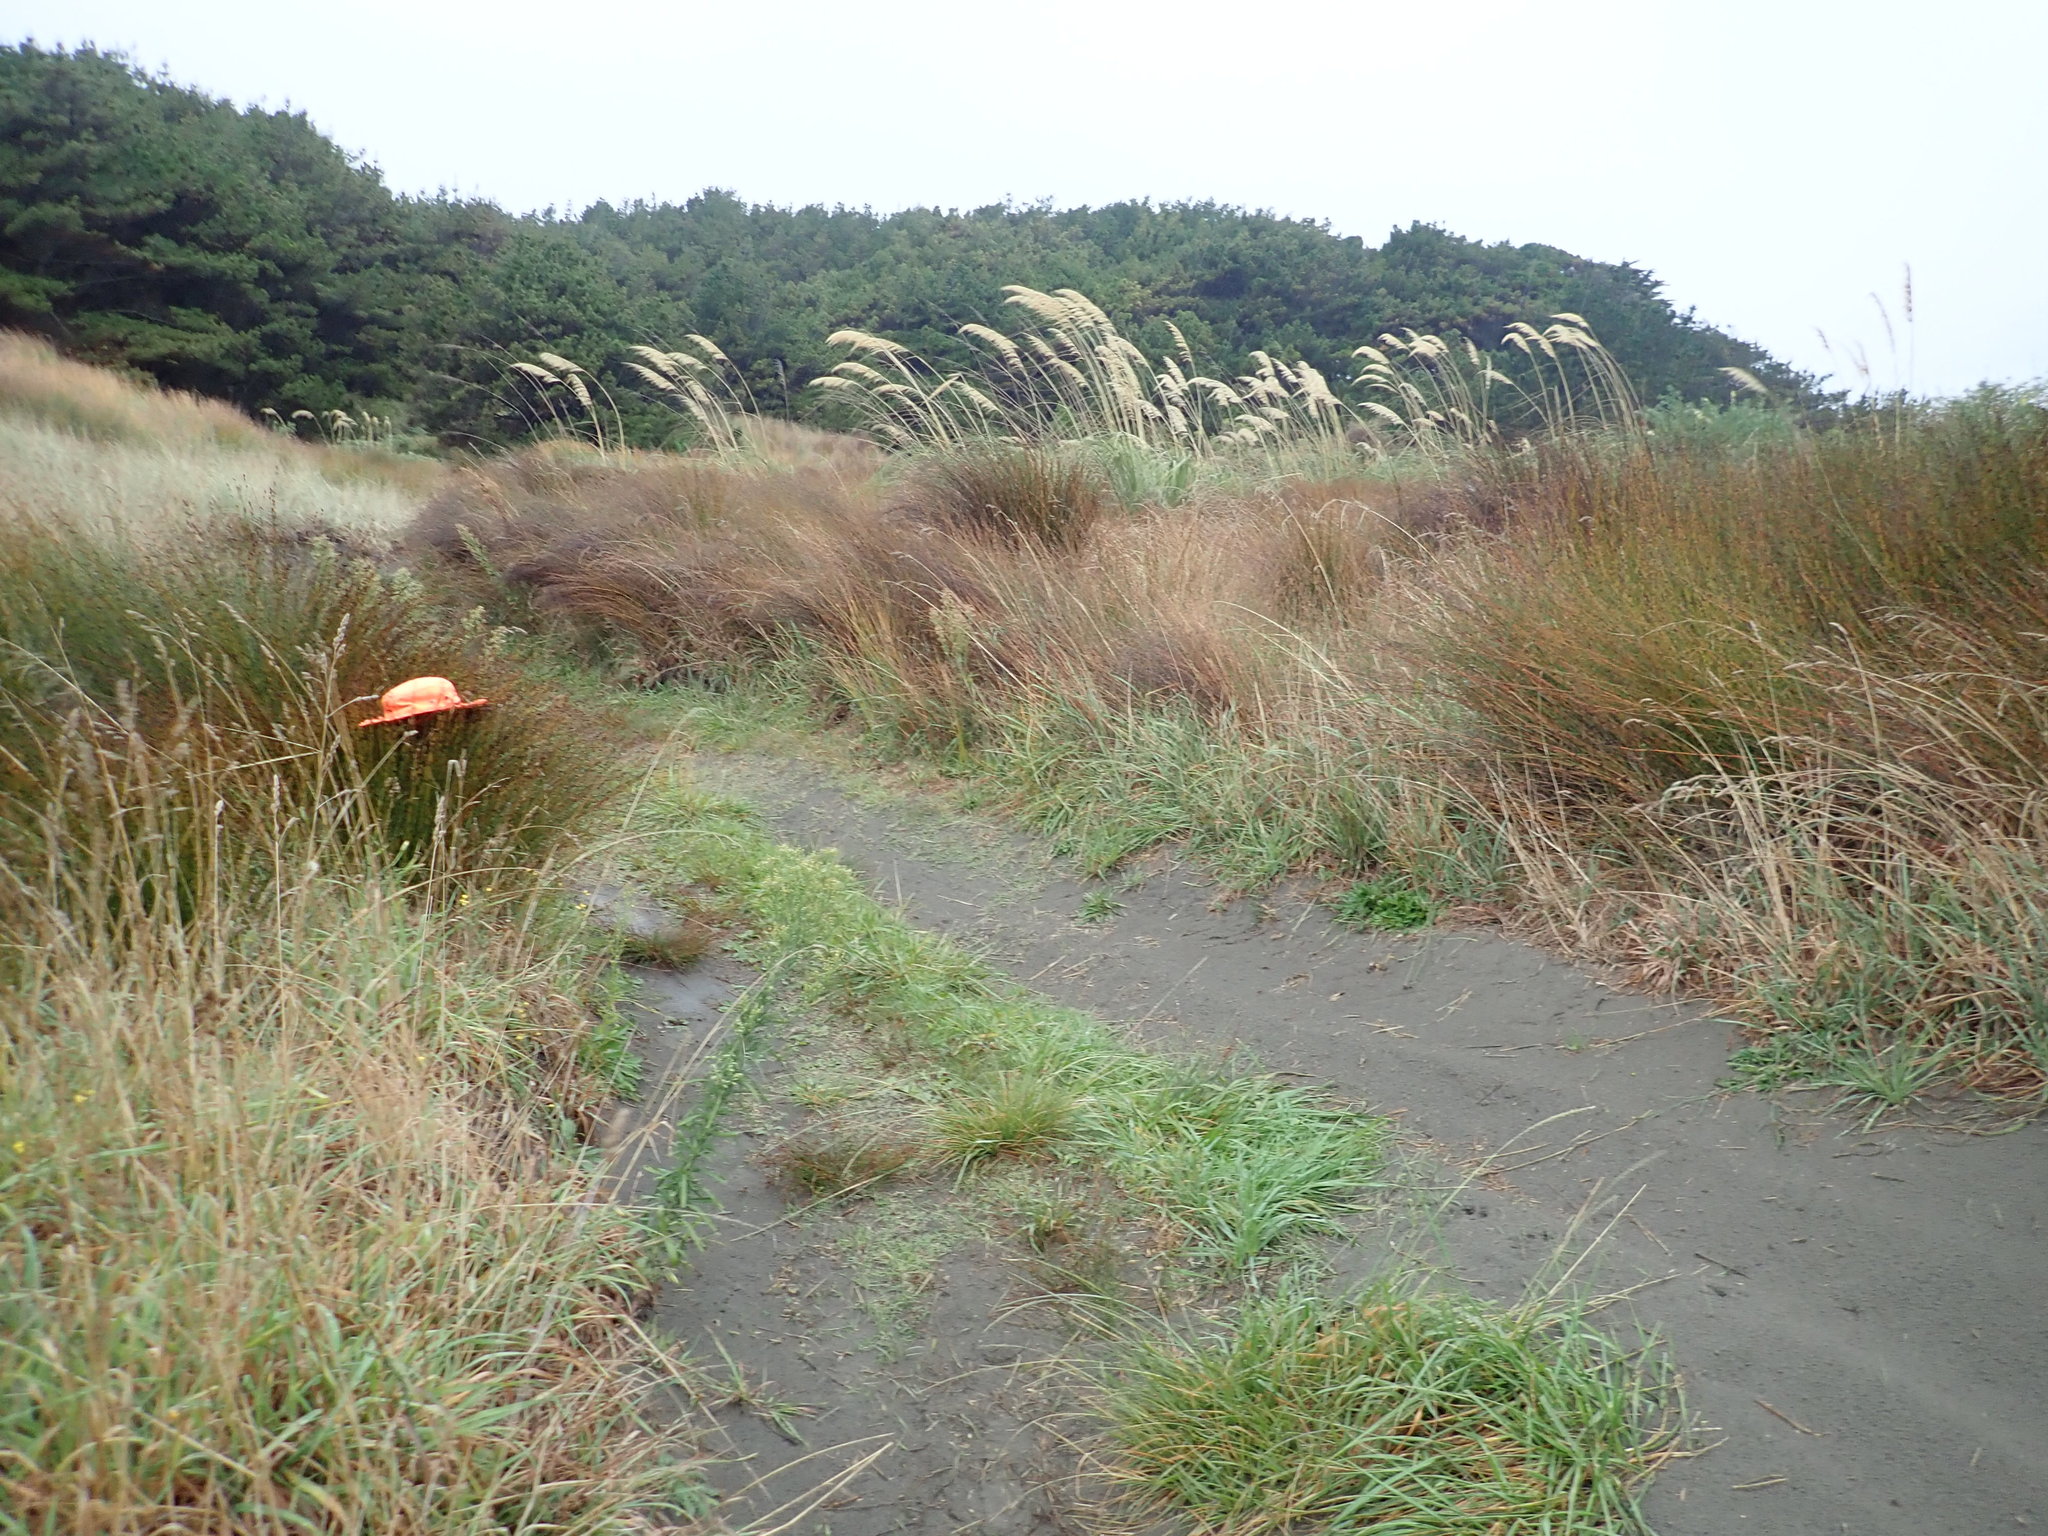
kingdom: Plantae
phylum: Tracheophyta
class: Liliopsida
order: Poales
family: Restionaceae
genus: Apodasmia
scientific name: Apodasmia similis
